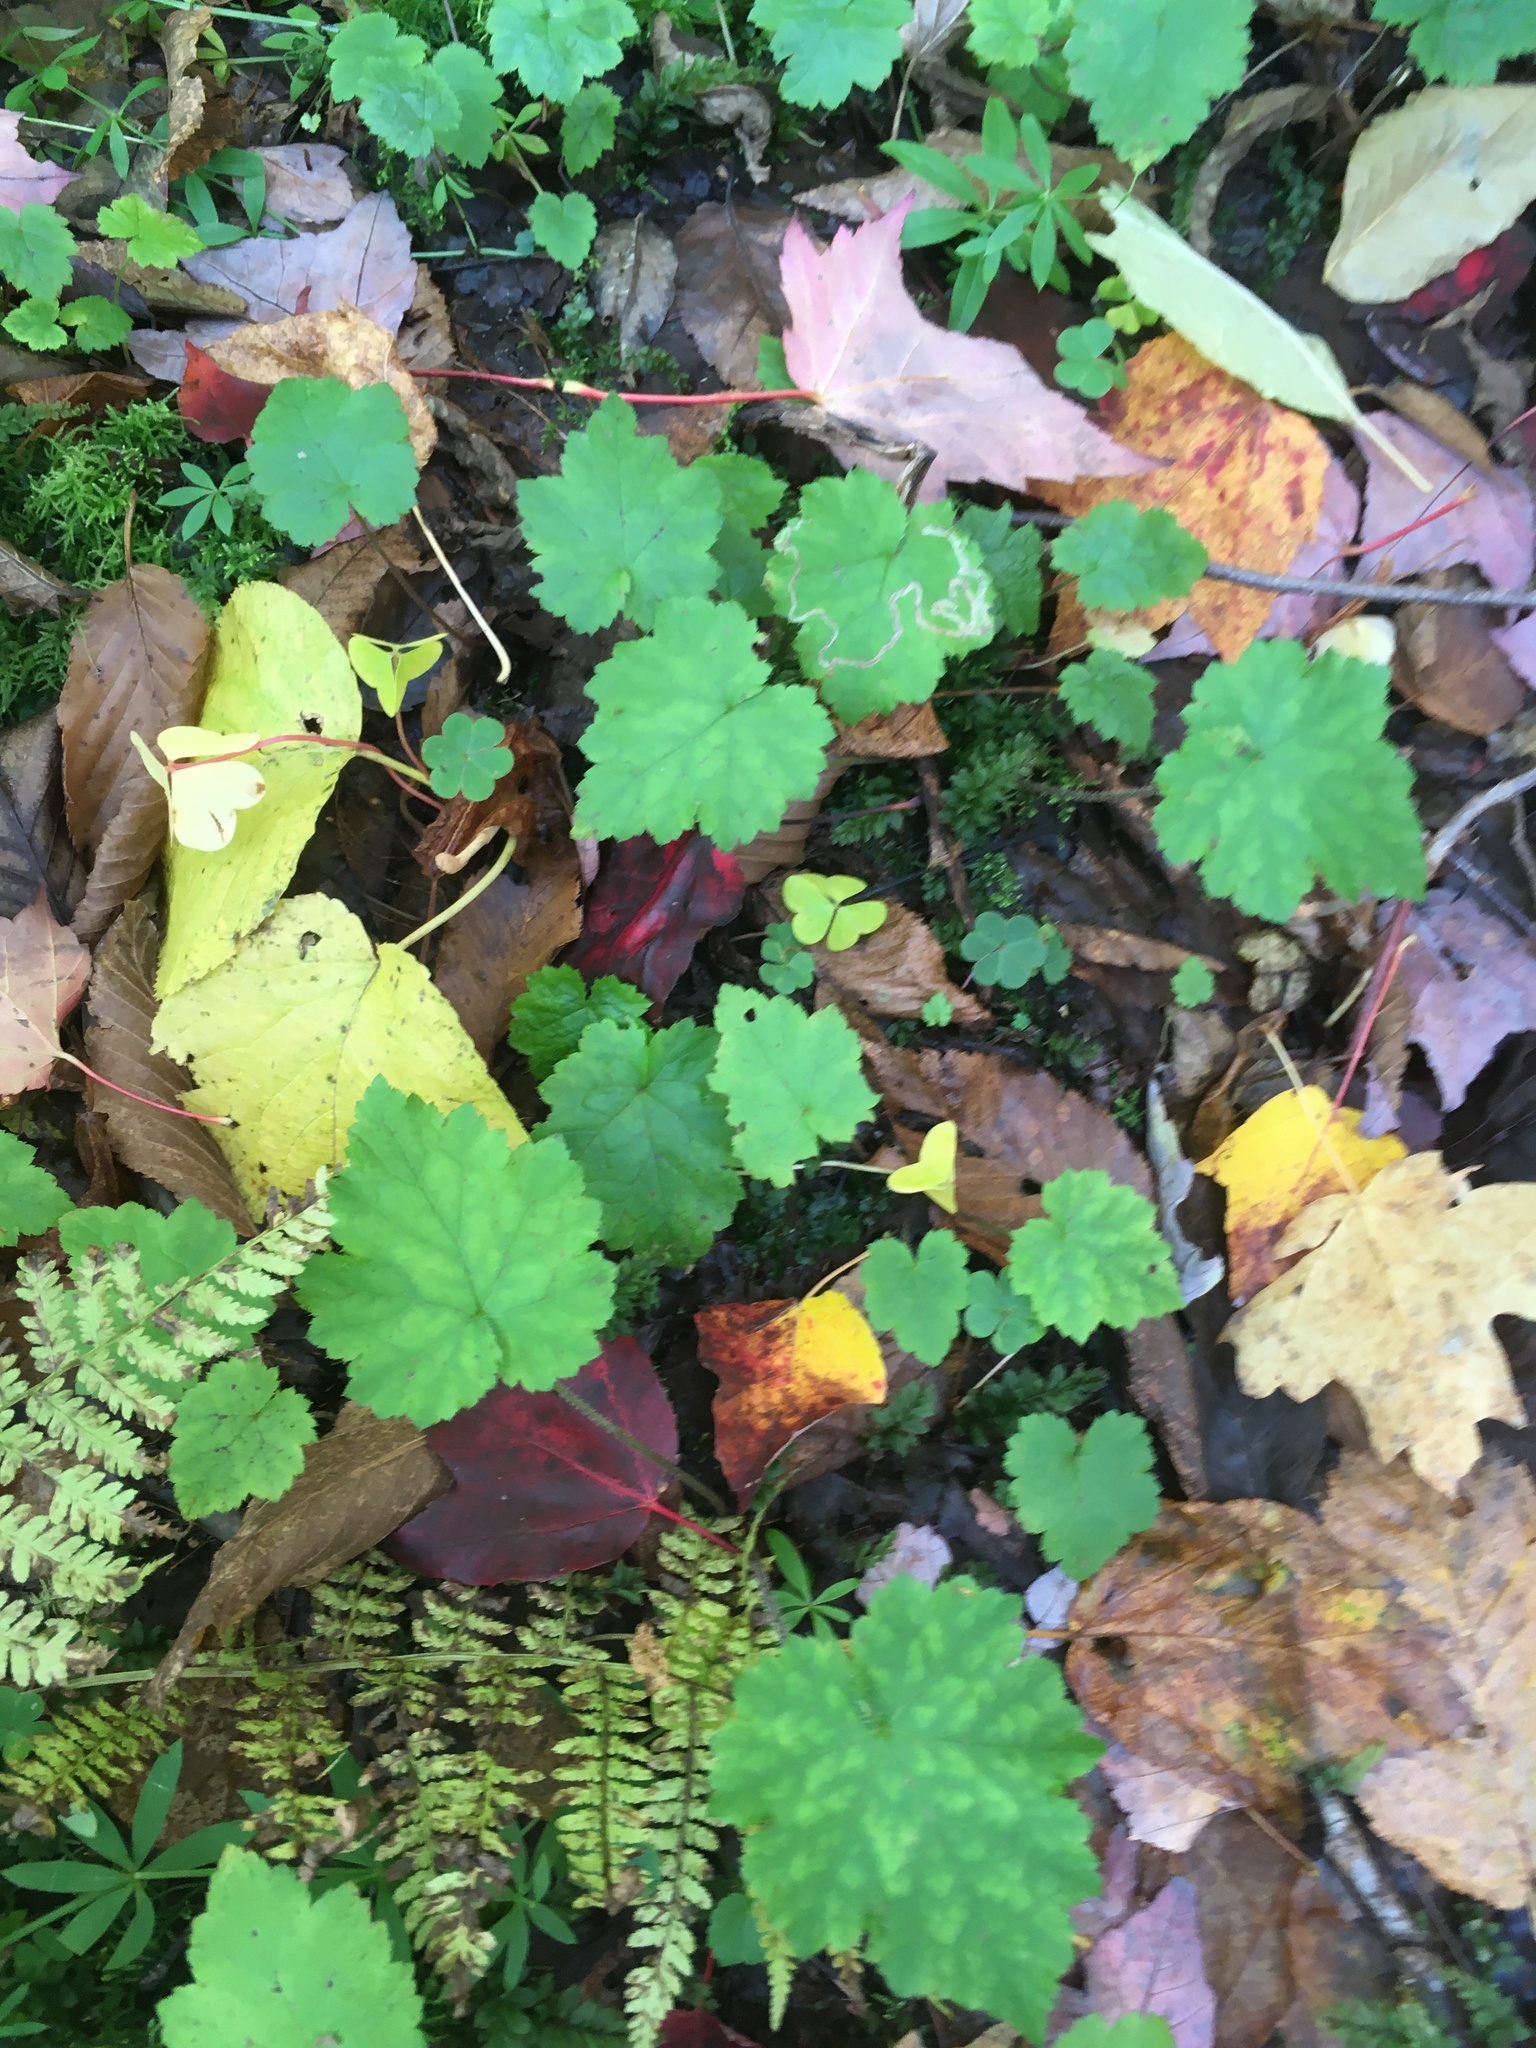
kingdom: Plantae
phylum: Tracheophyta
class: Magnoliopsida
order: Saxifragales
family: Saxifragaceae
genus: Tiarella
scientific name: Tiarella stolonifera
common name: Stoloniferous foamflower
